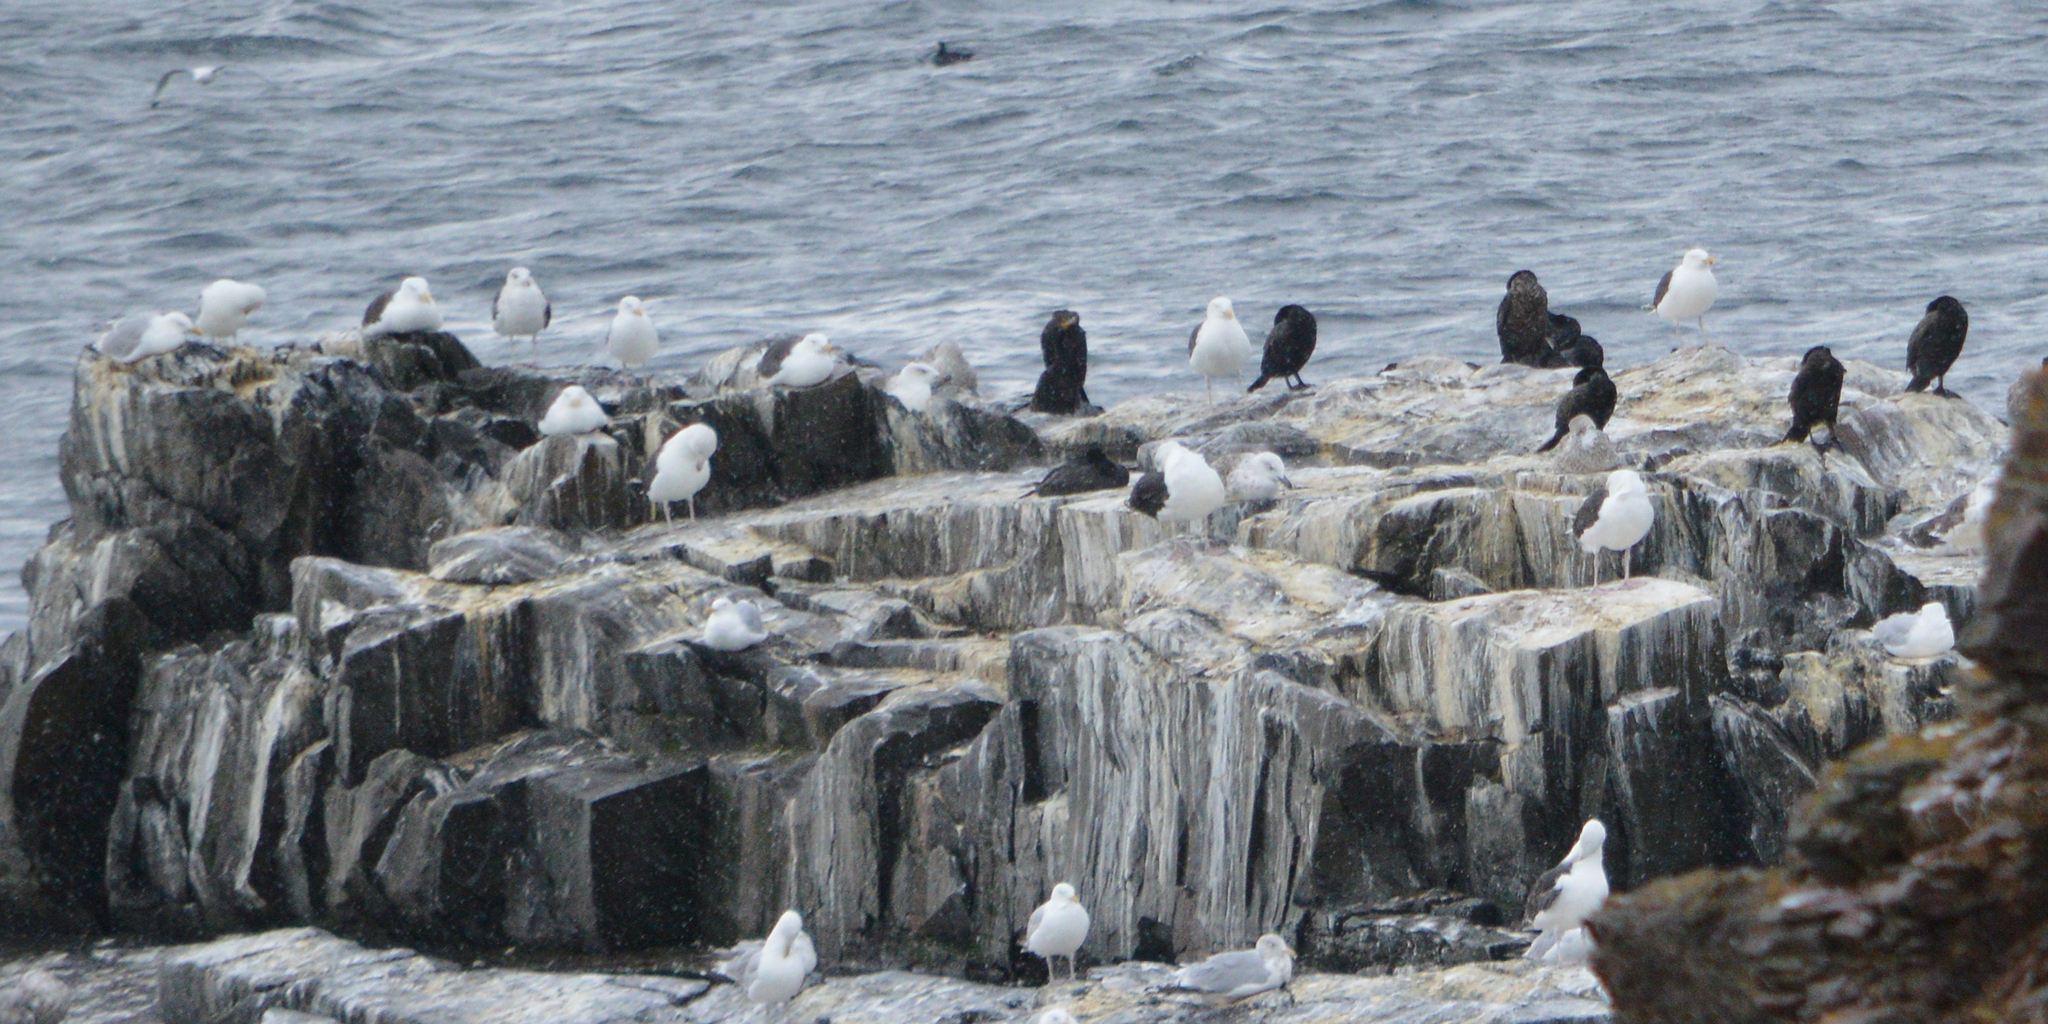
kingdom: Animalia
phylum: Chordata
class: Aves
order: Charadriiformes
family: Laridae
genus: Larus
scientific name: Larus argentatus
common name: Herring gull
